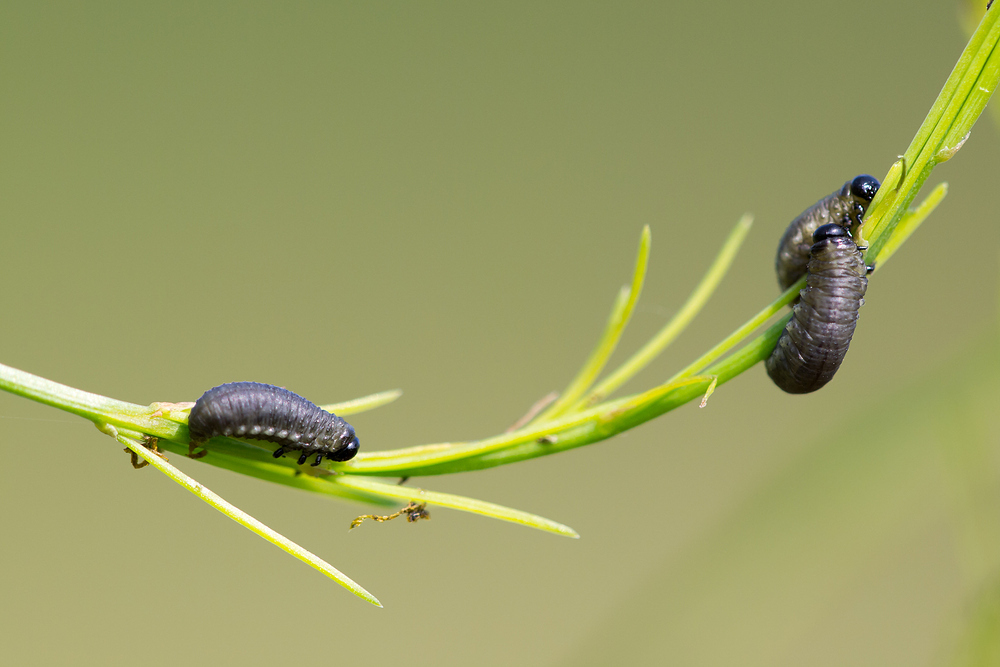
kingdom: Animalia
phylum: Arthropoda
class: Insecta
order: Coleoptera
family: Chrysomelidae
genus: Crioceris
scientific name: Crioceris asparagi
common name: Asparagus beetle
